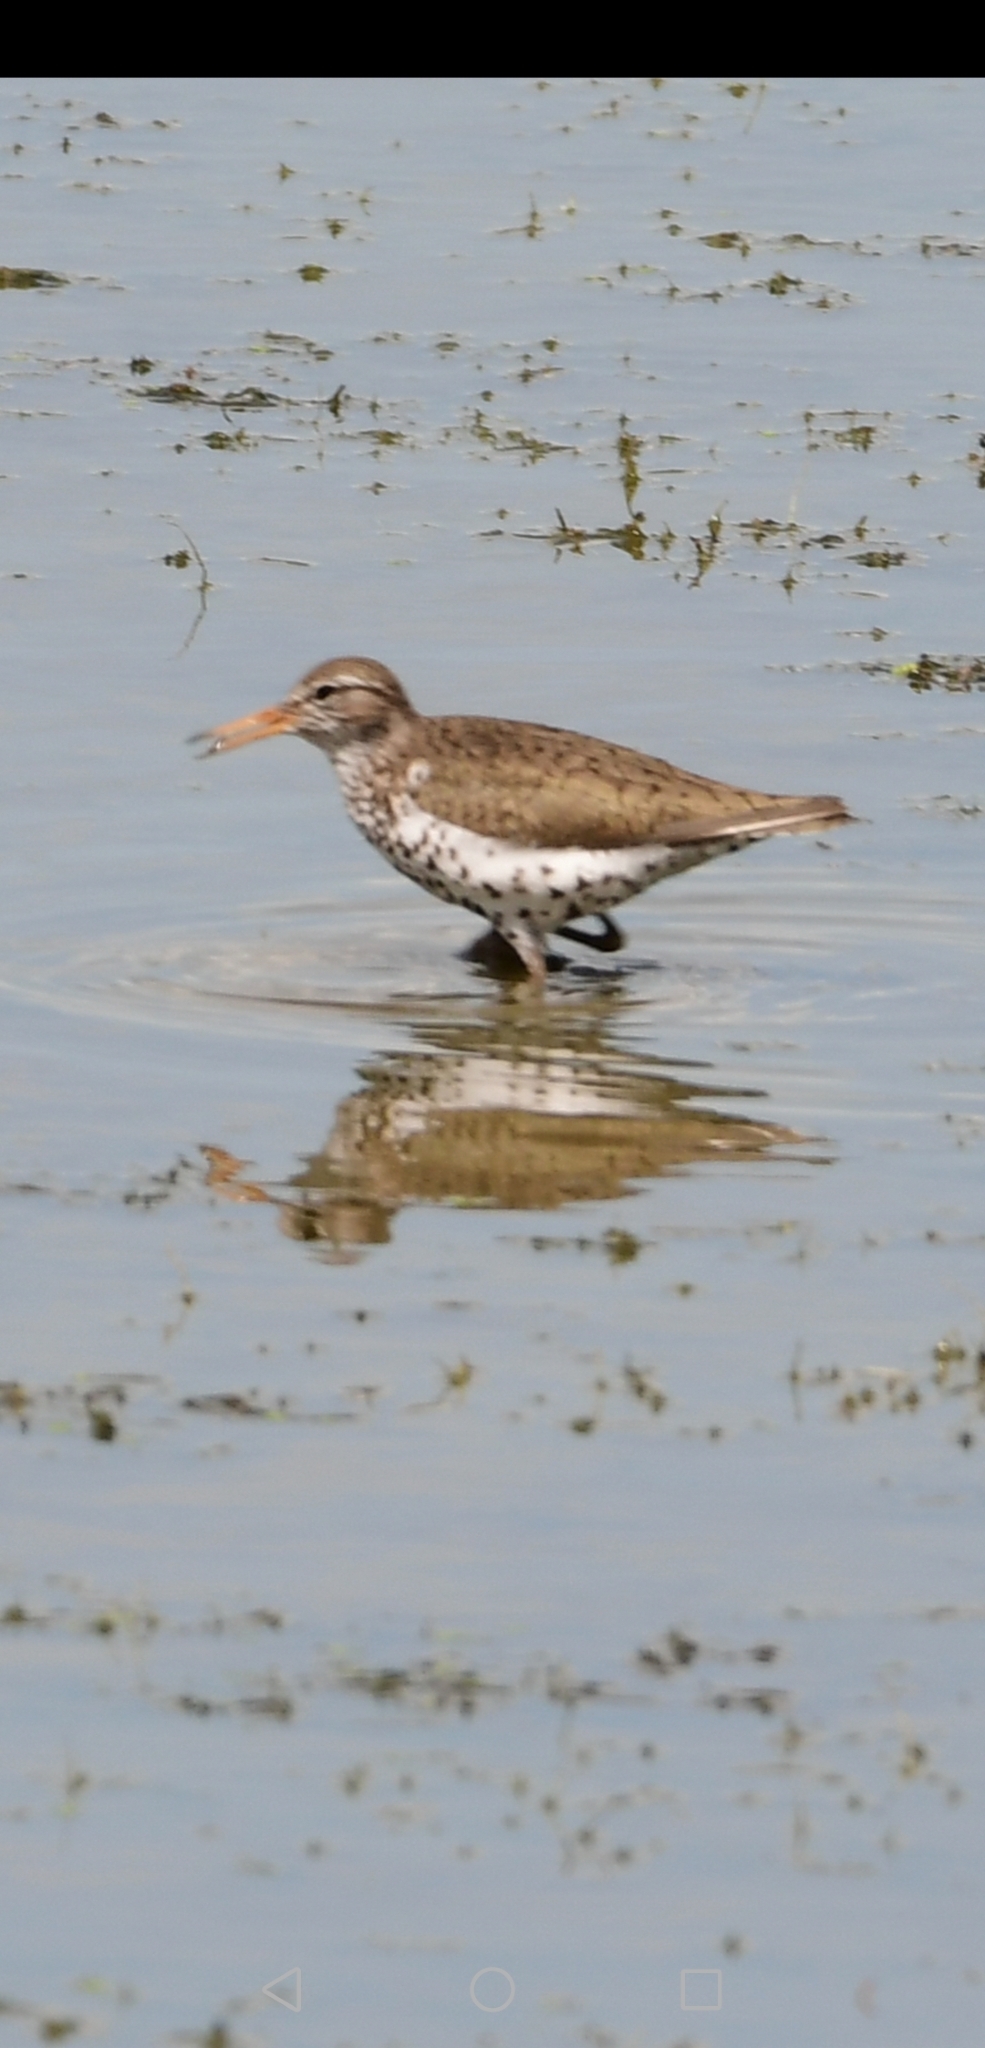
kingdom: Animalia
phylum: Chordata
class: Aves
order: Charadriiformes
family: Scolopacidae
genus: Actitis
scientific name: Actitis macularius
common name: Spotted sandpiper
